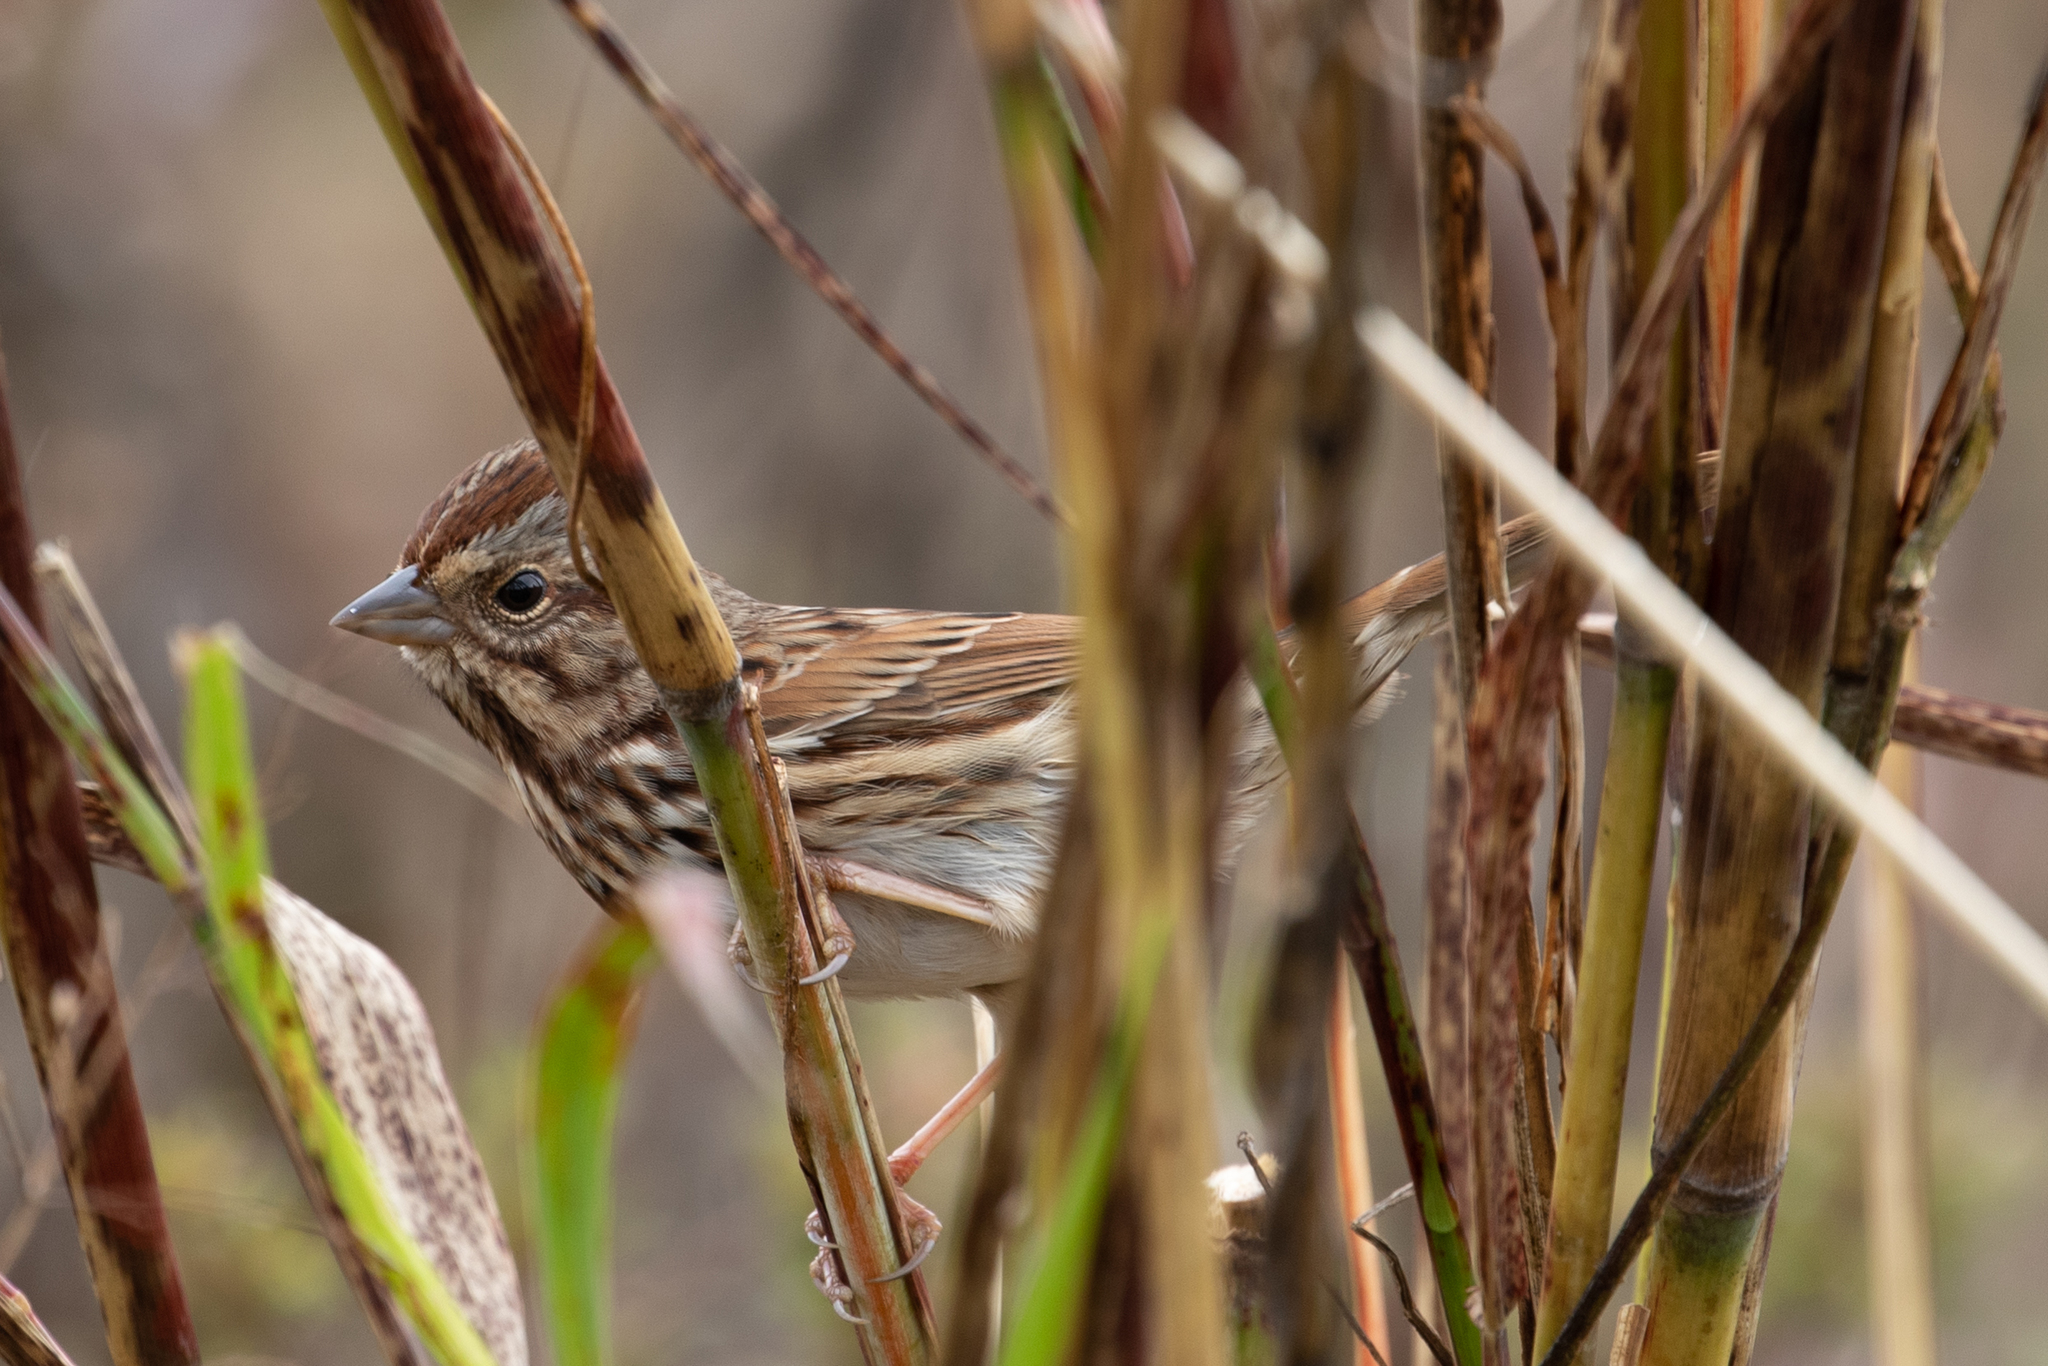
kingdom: Animalia
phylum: Chordata
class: Aves
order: Passeriformes
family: Passerellidae
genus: Melospiza
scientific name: Melospiza melodia
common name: Song sparrow
